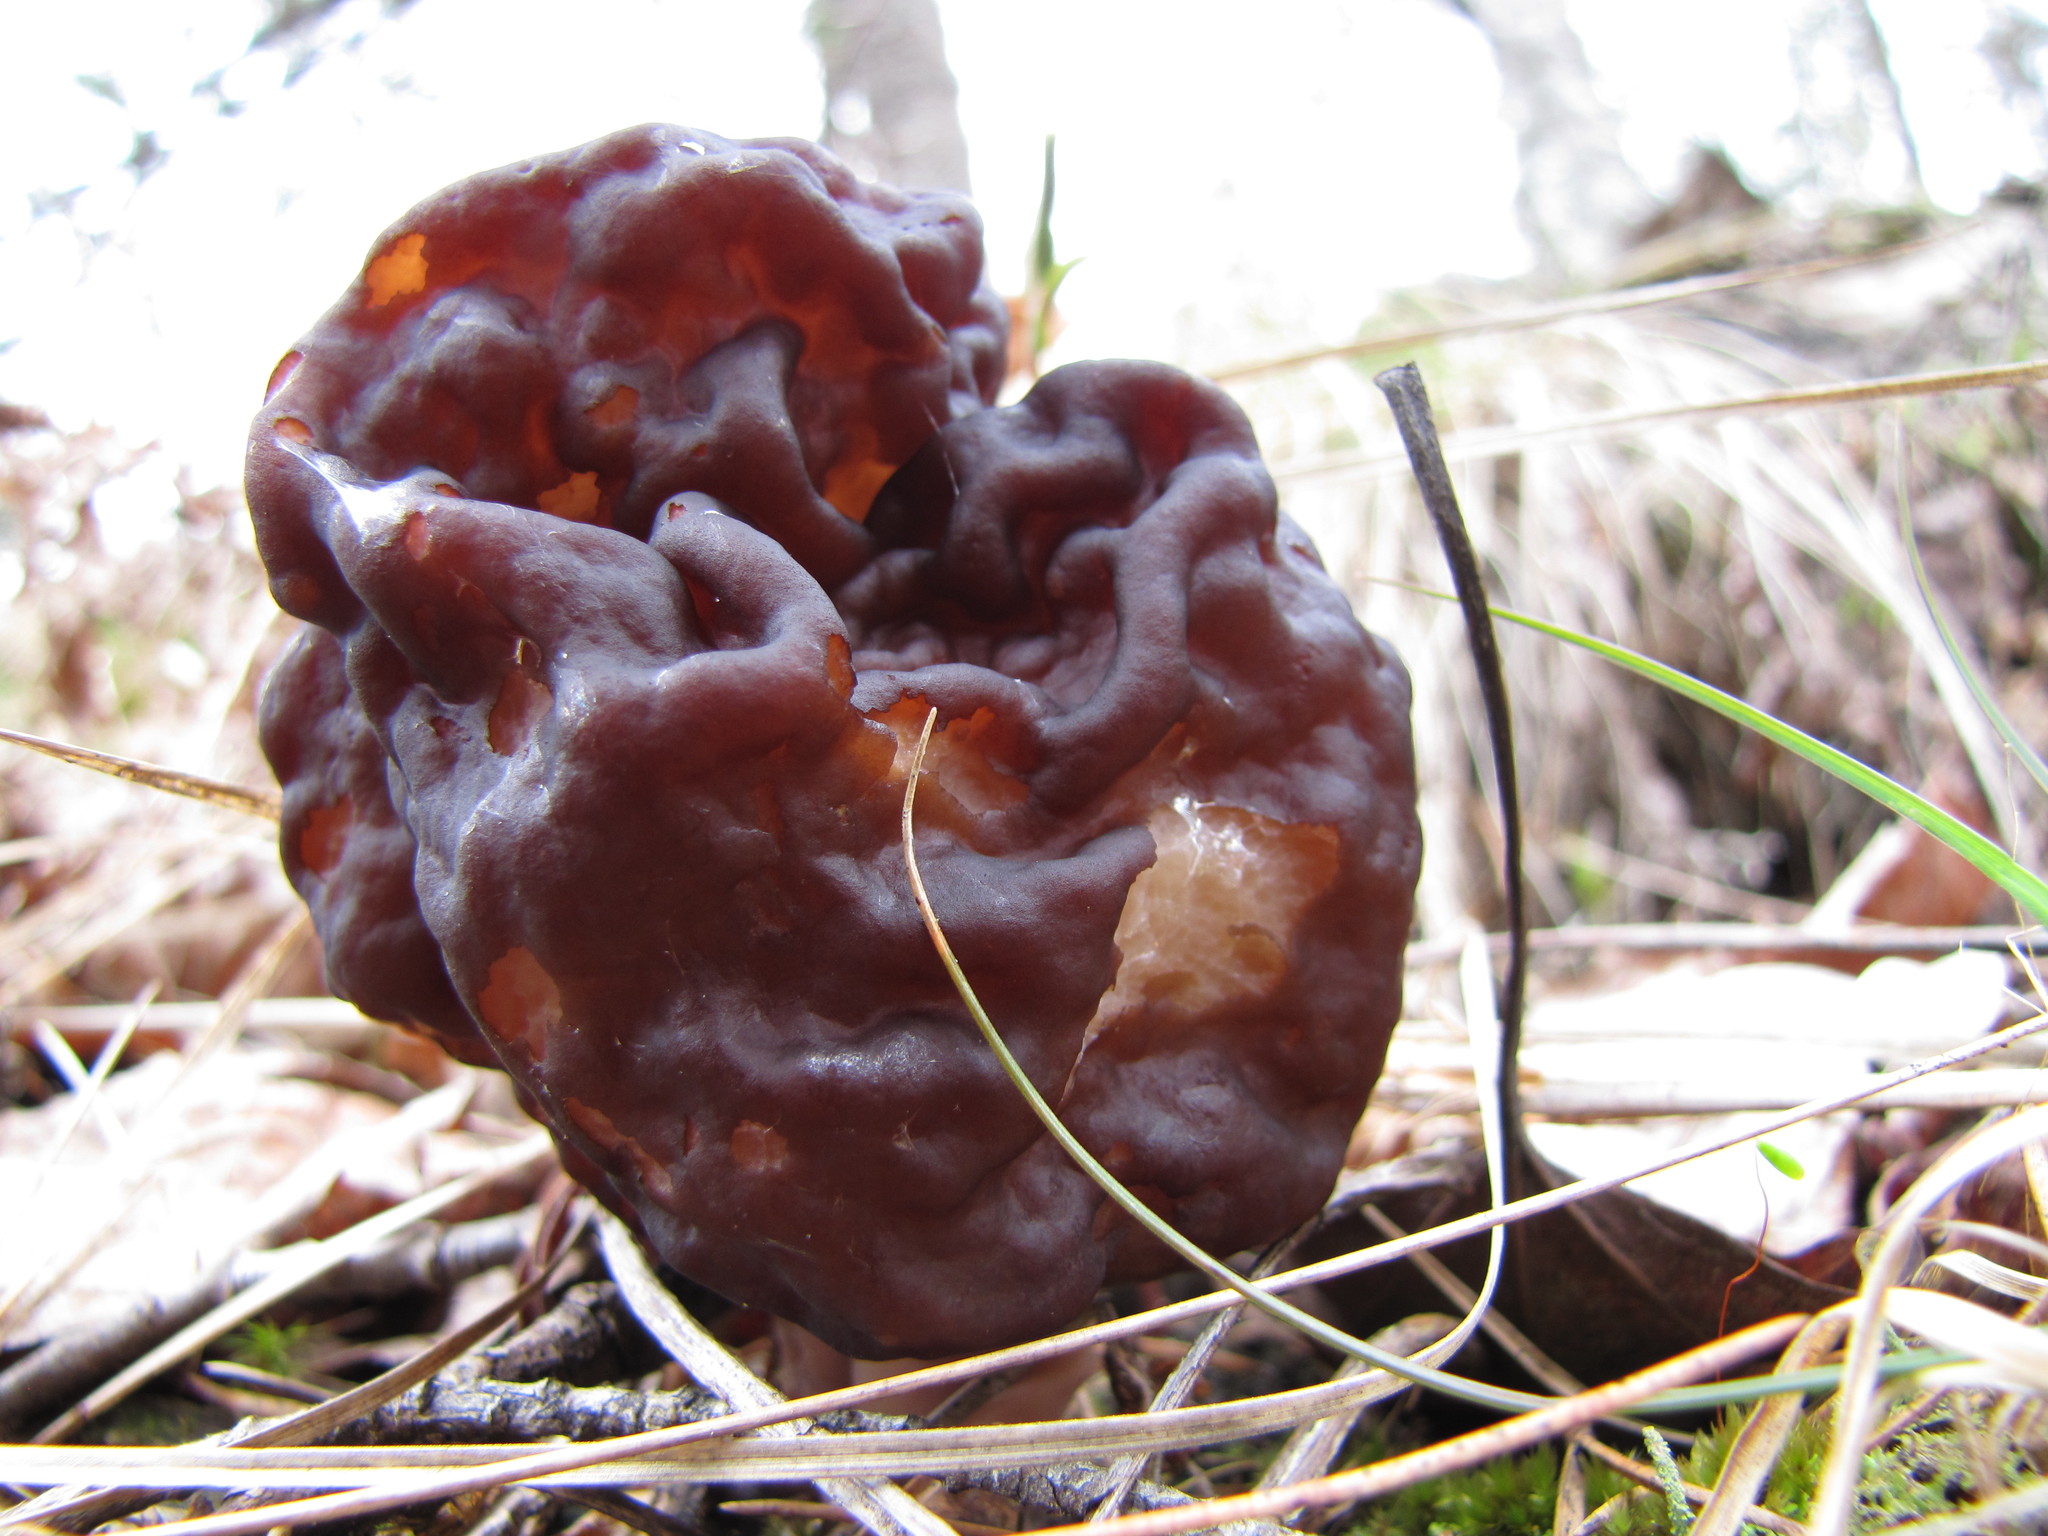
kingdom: Fungi
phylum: Ascomycota
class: Pezizomycetes
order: Pezizales
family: Discinaceae
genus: Gyromitra
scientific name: Gyromitra esculenta
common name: False morel
